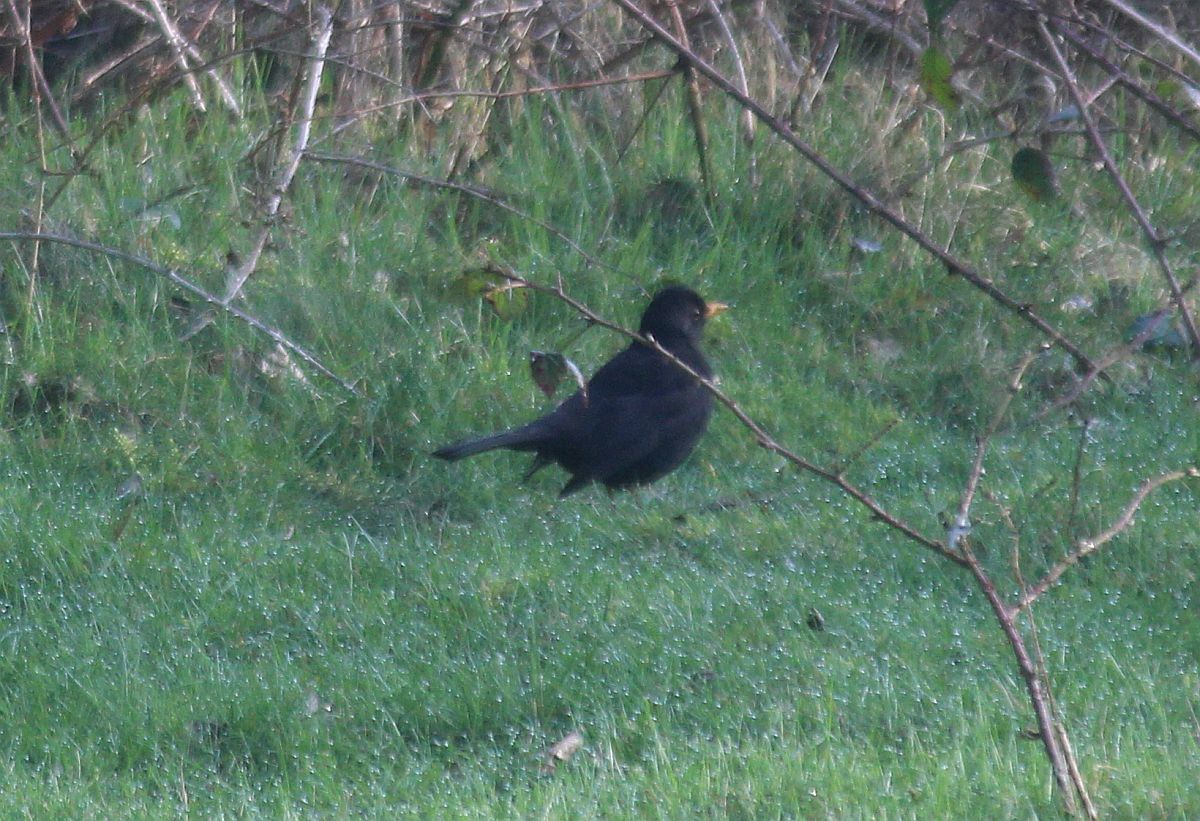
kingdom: Animalia
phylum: Chordata
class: Aves
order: Passeriformes
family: Turdidae
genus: Turdus
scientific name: Turdus merula
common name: Common blackbird
